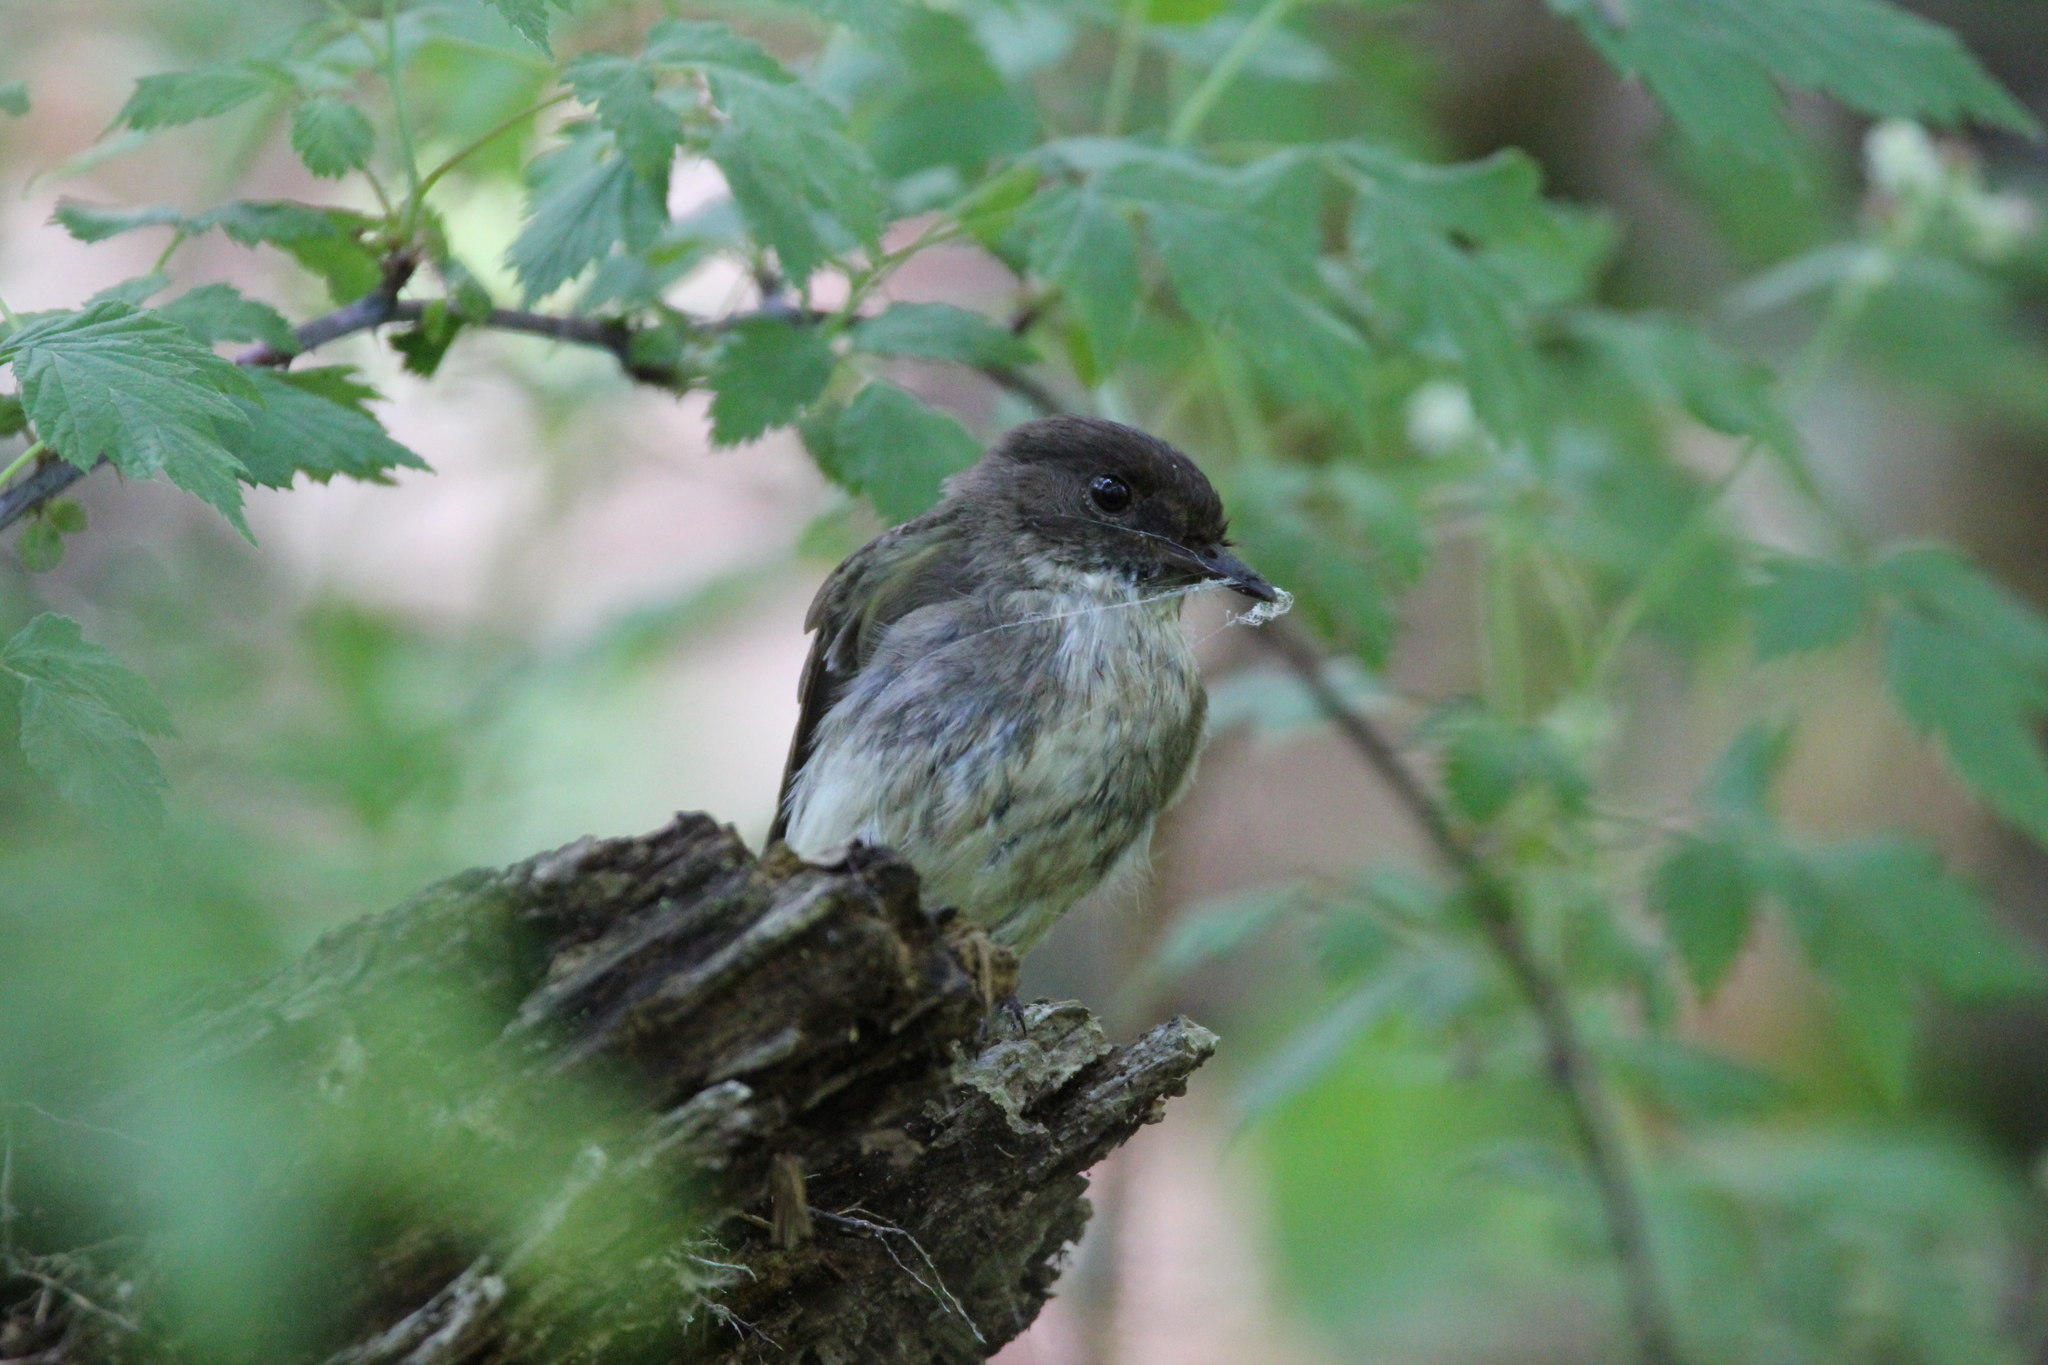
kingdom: Animalia
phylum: Chordata
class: Aves
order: Passeriformes
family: Tyrannidae
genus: Sayornis
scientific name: Sayornis phoebe
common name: Eastern phoebe
